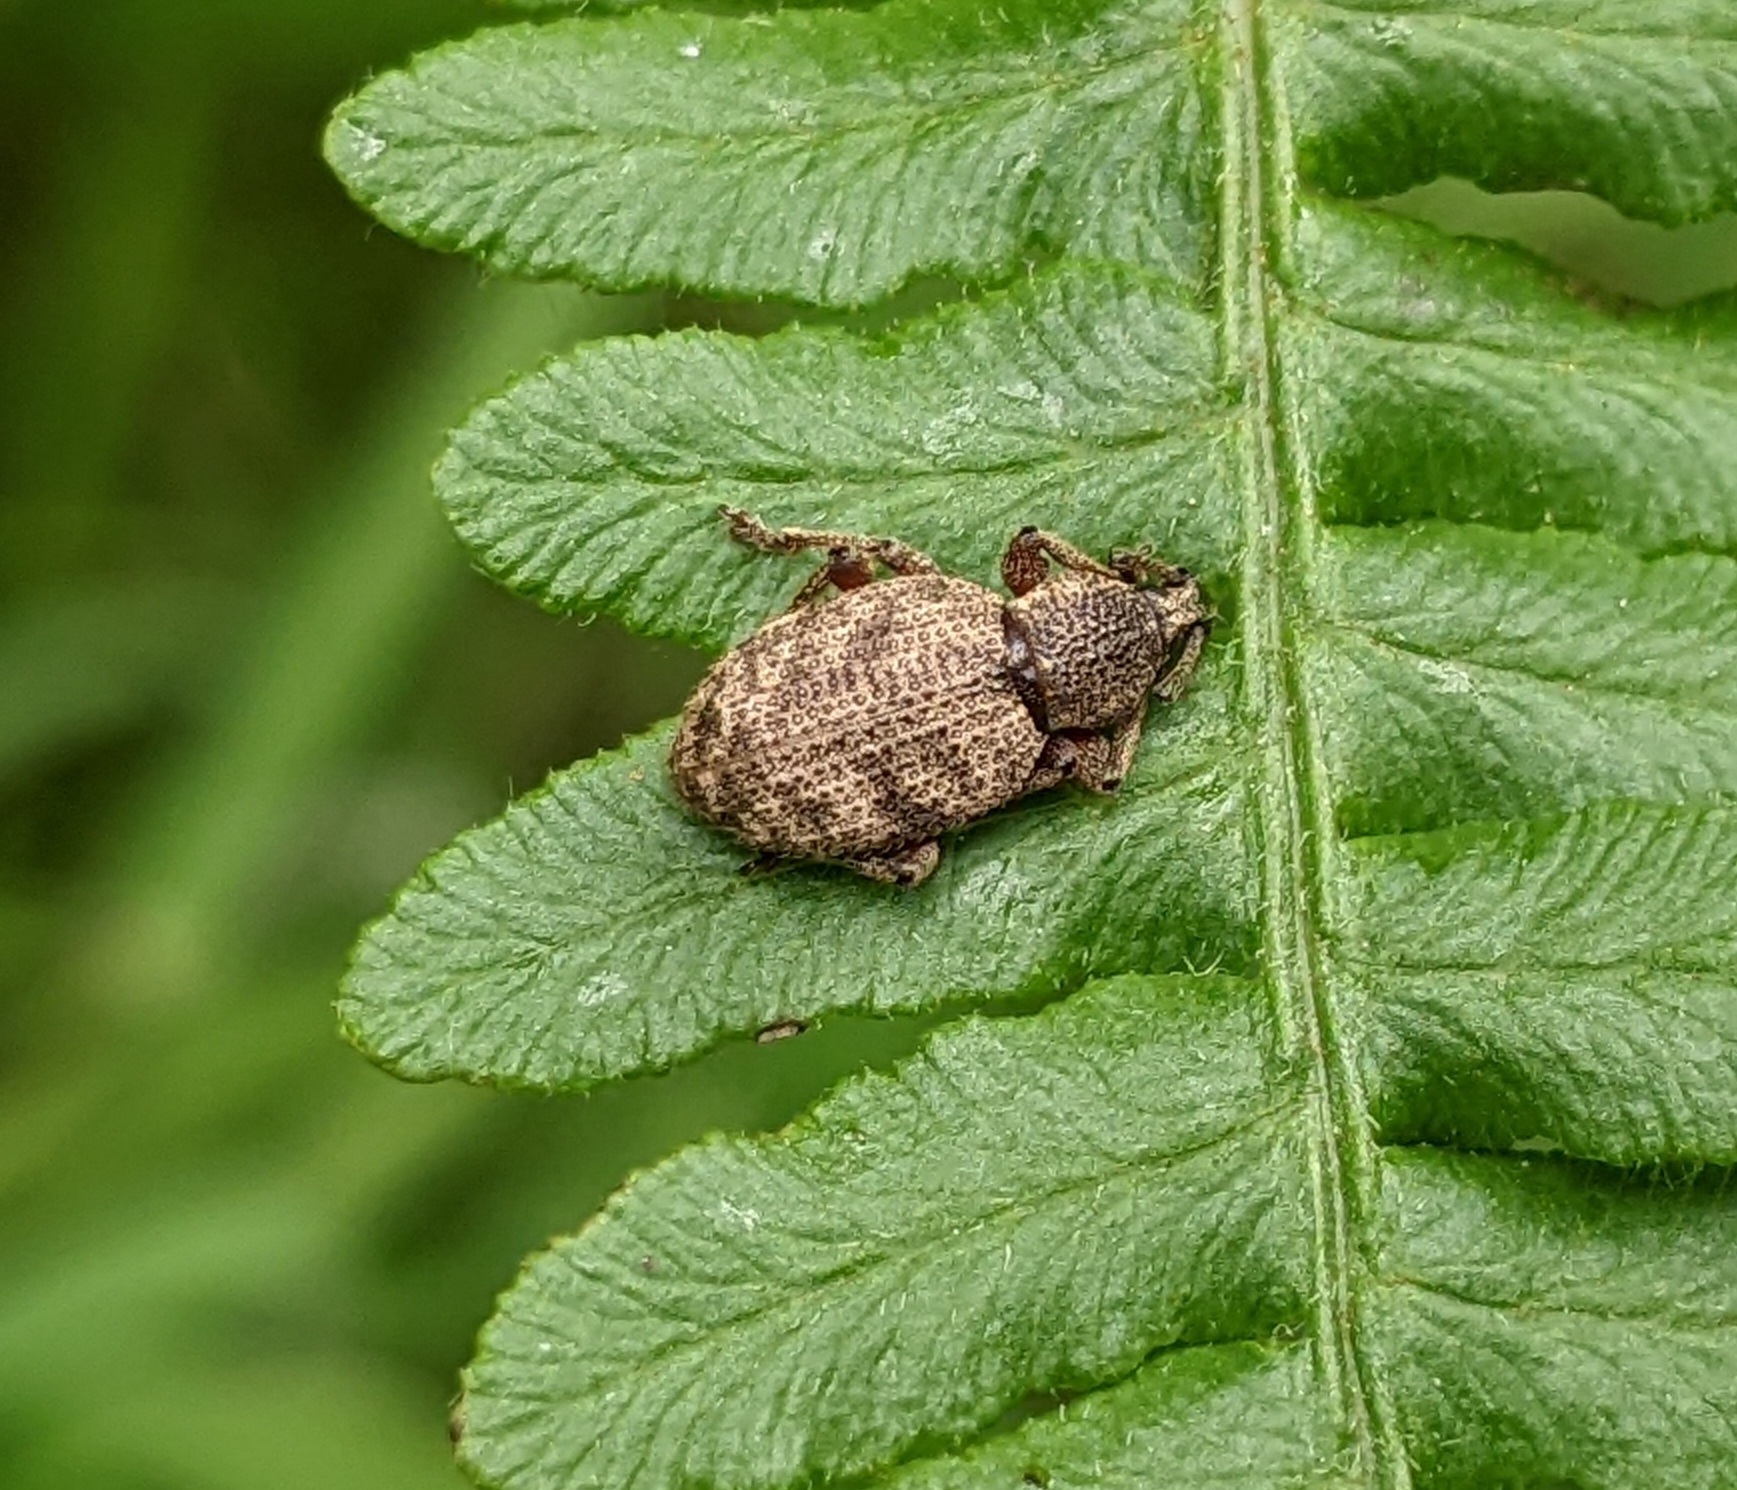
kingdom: Animalia
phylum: Arthropoda
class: Insecta
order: Coleoptera
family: Curculionidae
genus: Otiorhynchus
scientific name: Otiorhynchus singularis
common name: Clay-coloured weevil
